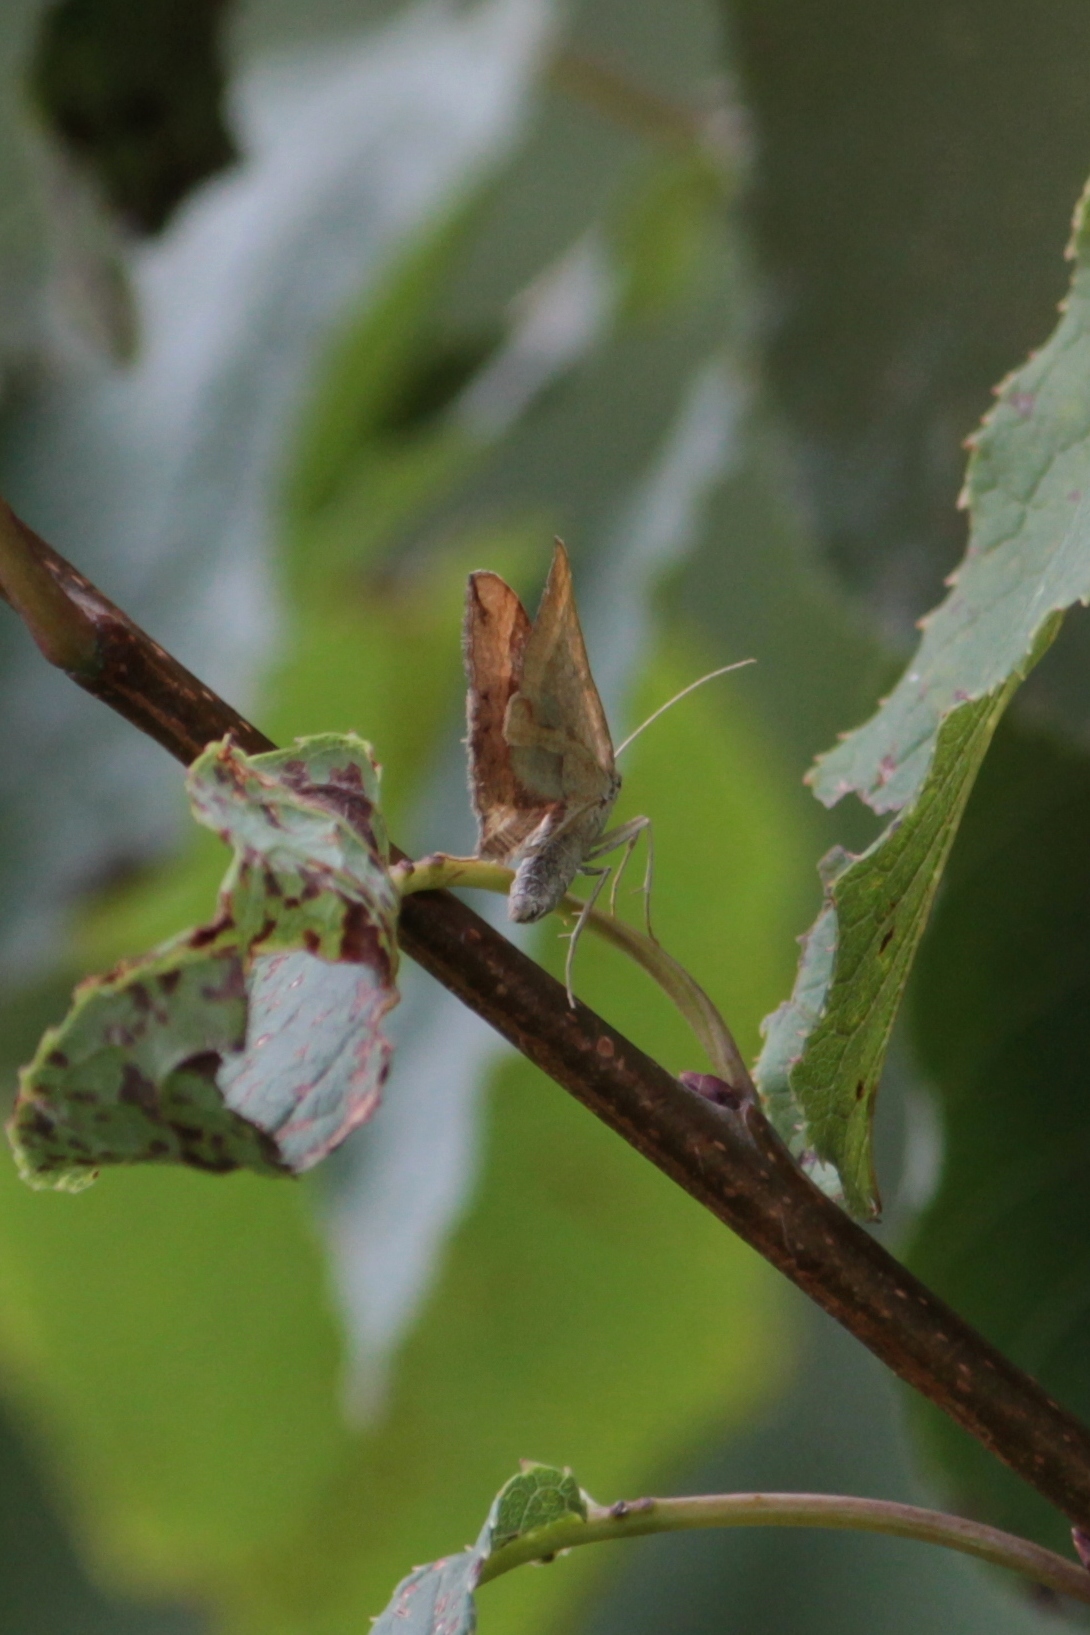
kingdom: Animalia
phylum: Arthropoda
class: Insecta
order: Lepidoptera
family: Geometridae
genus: Scotopteryx
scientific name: Scotopteryx chenopodiata
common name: Shaded broad-bar
